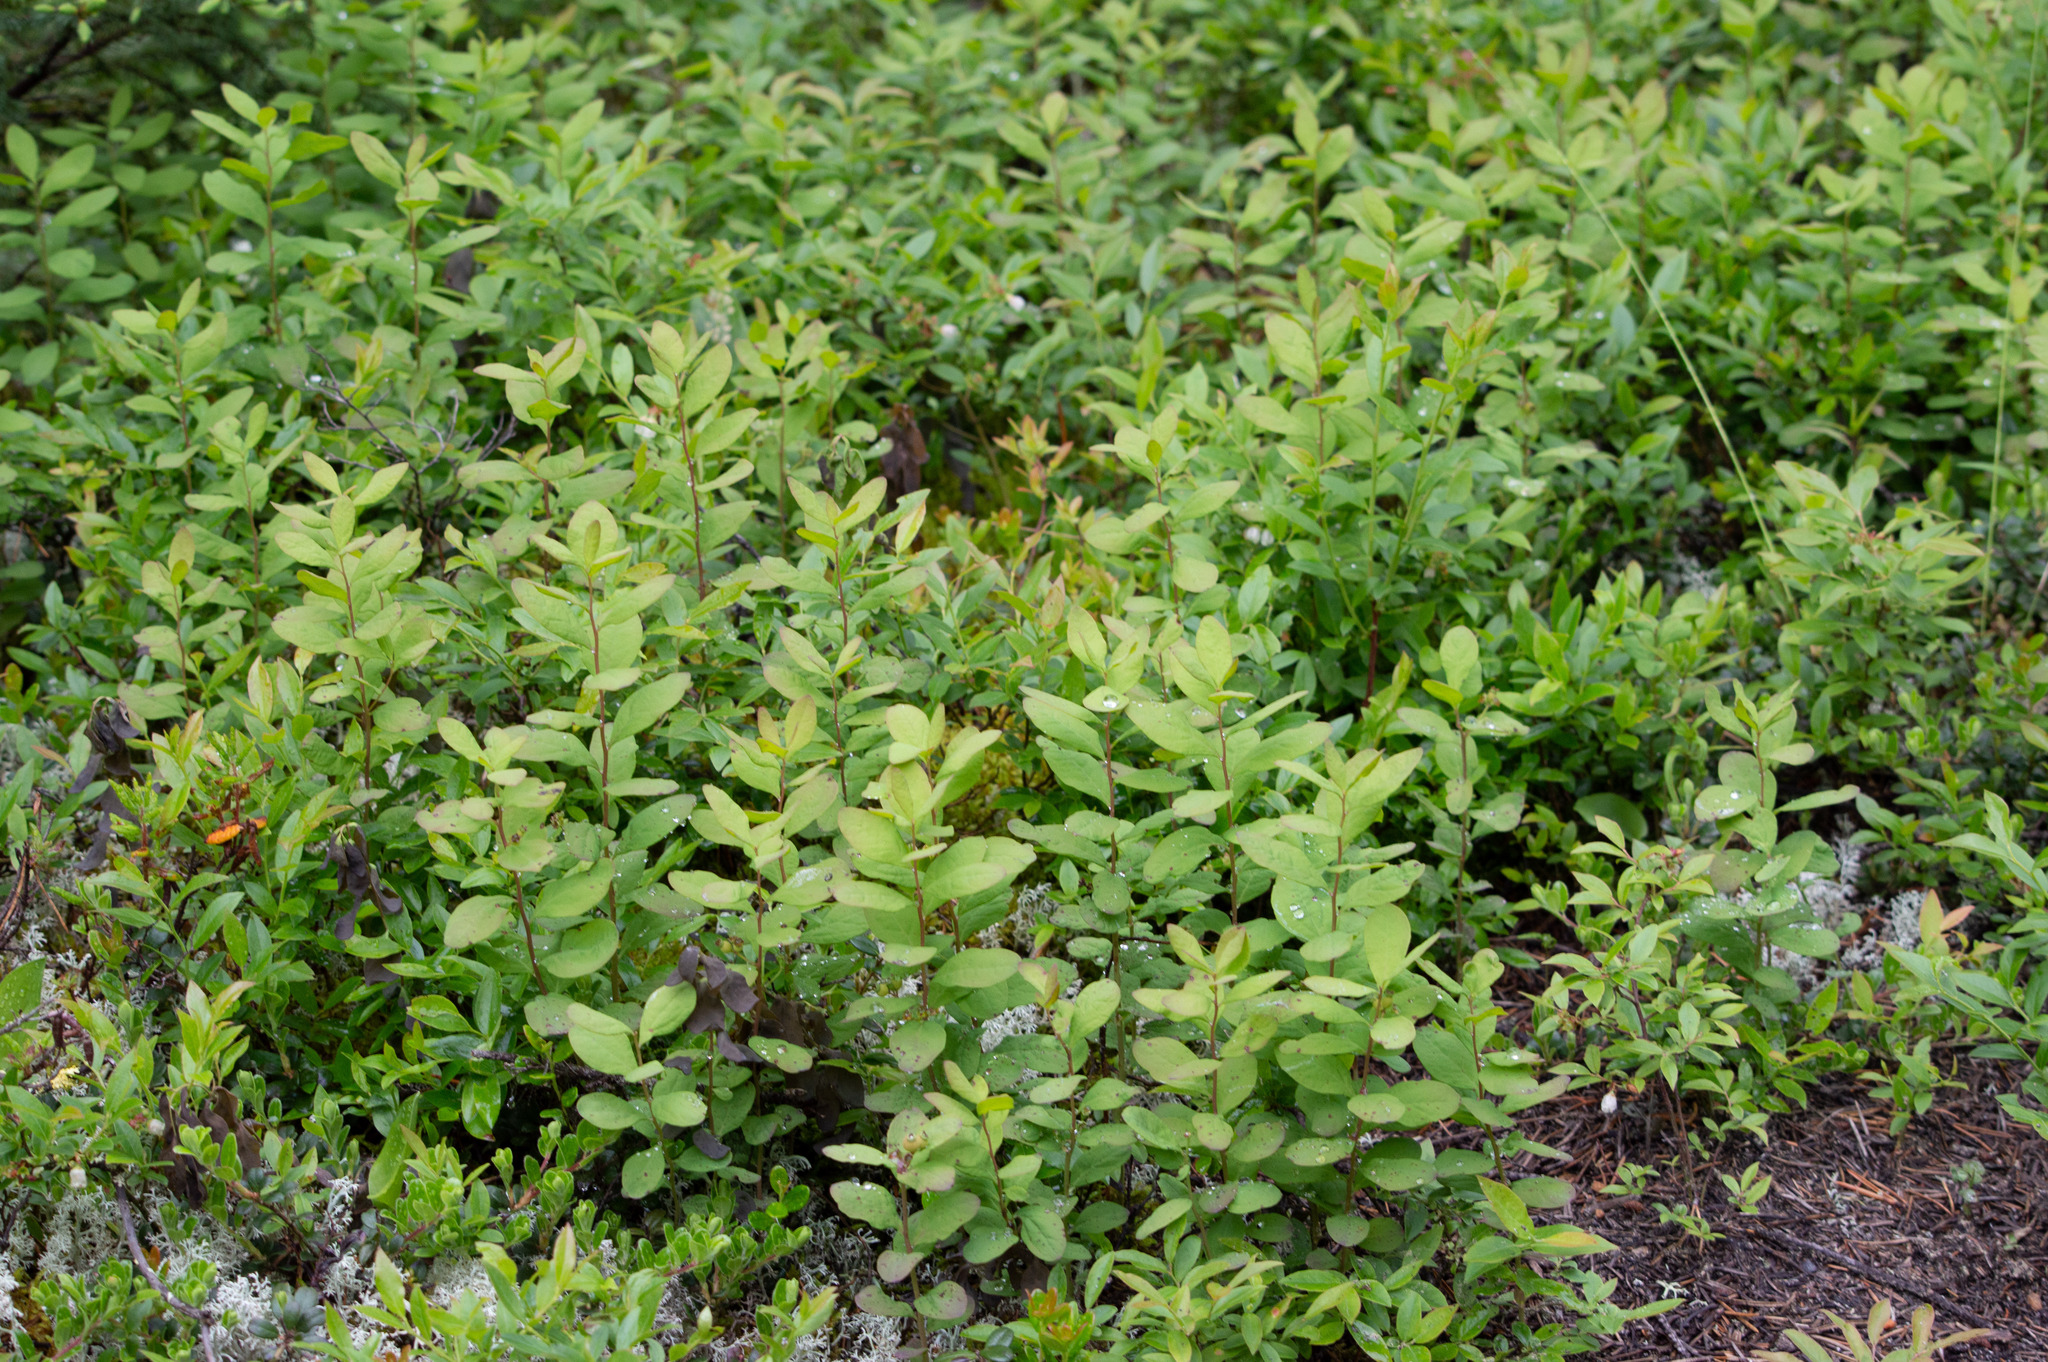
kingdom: Plantae
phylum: Tracheophyta
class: Magnoliopsida
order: Santalales
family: Comandraceae
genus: Geocaulon
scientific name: Geocaulon lividum
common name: Earthberry
